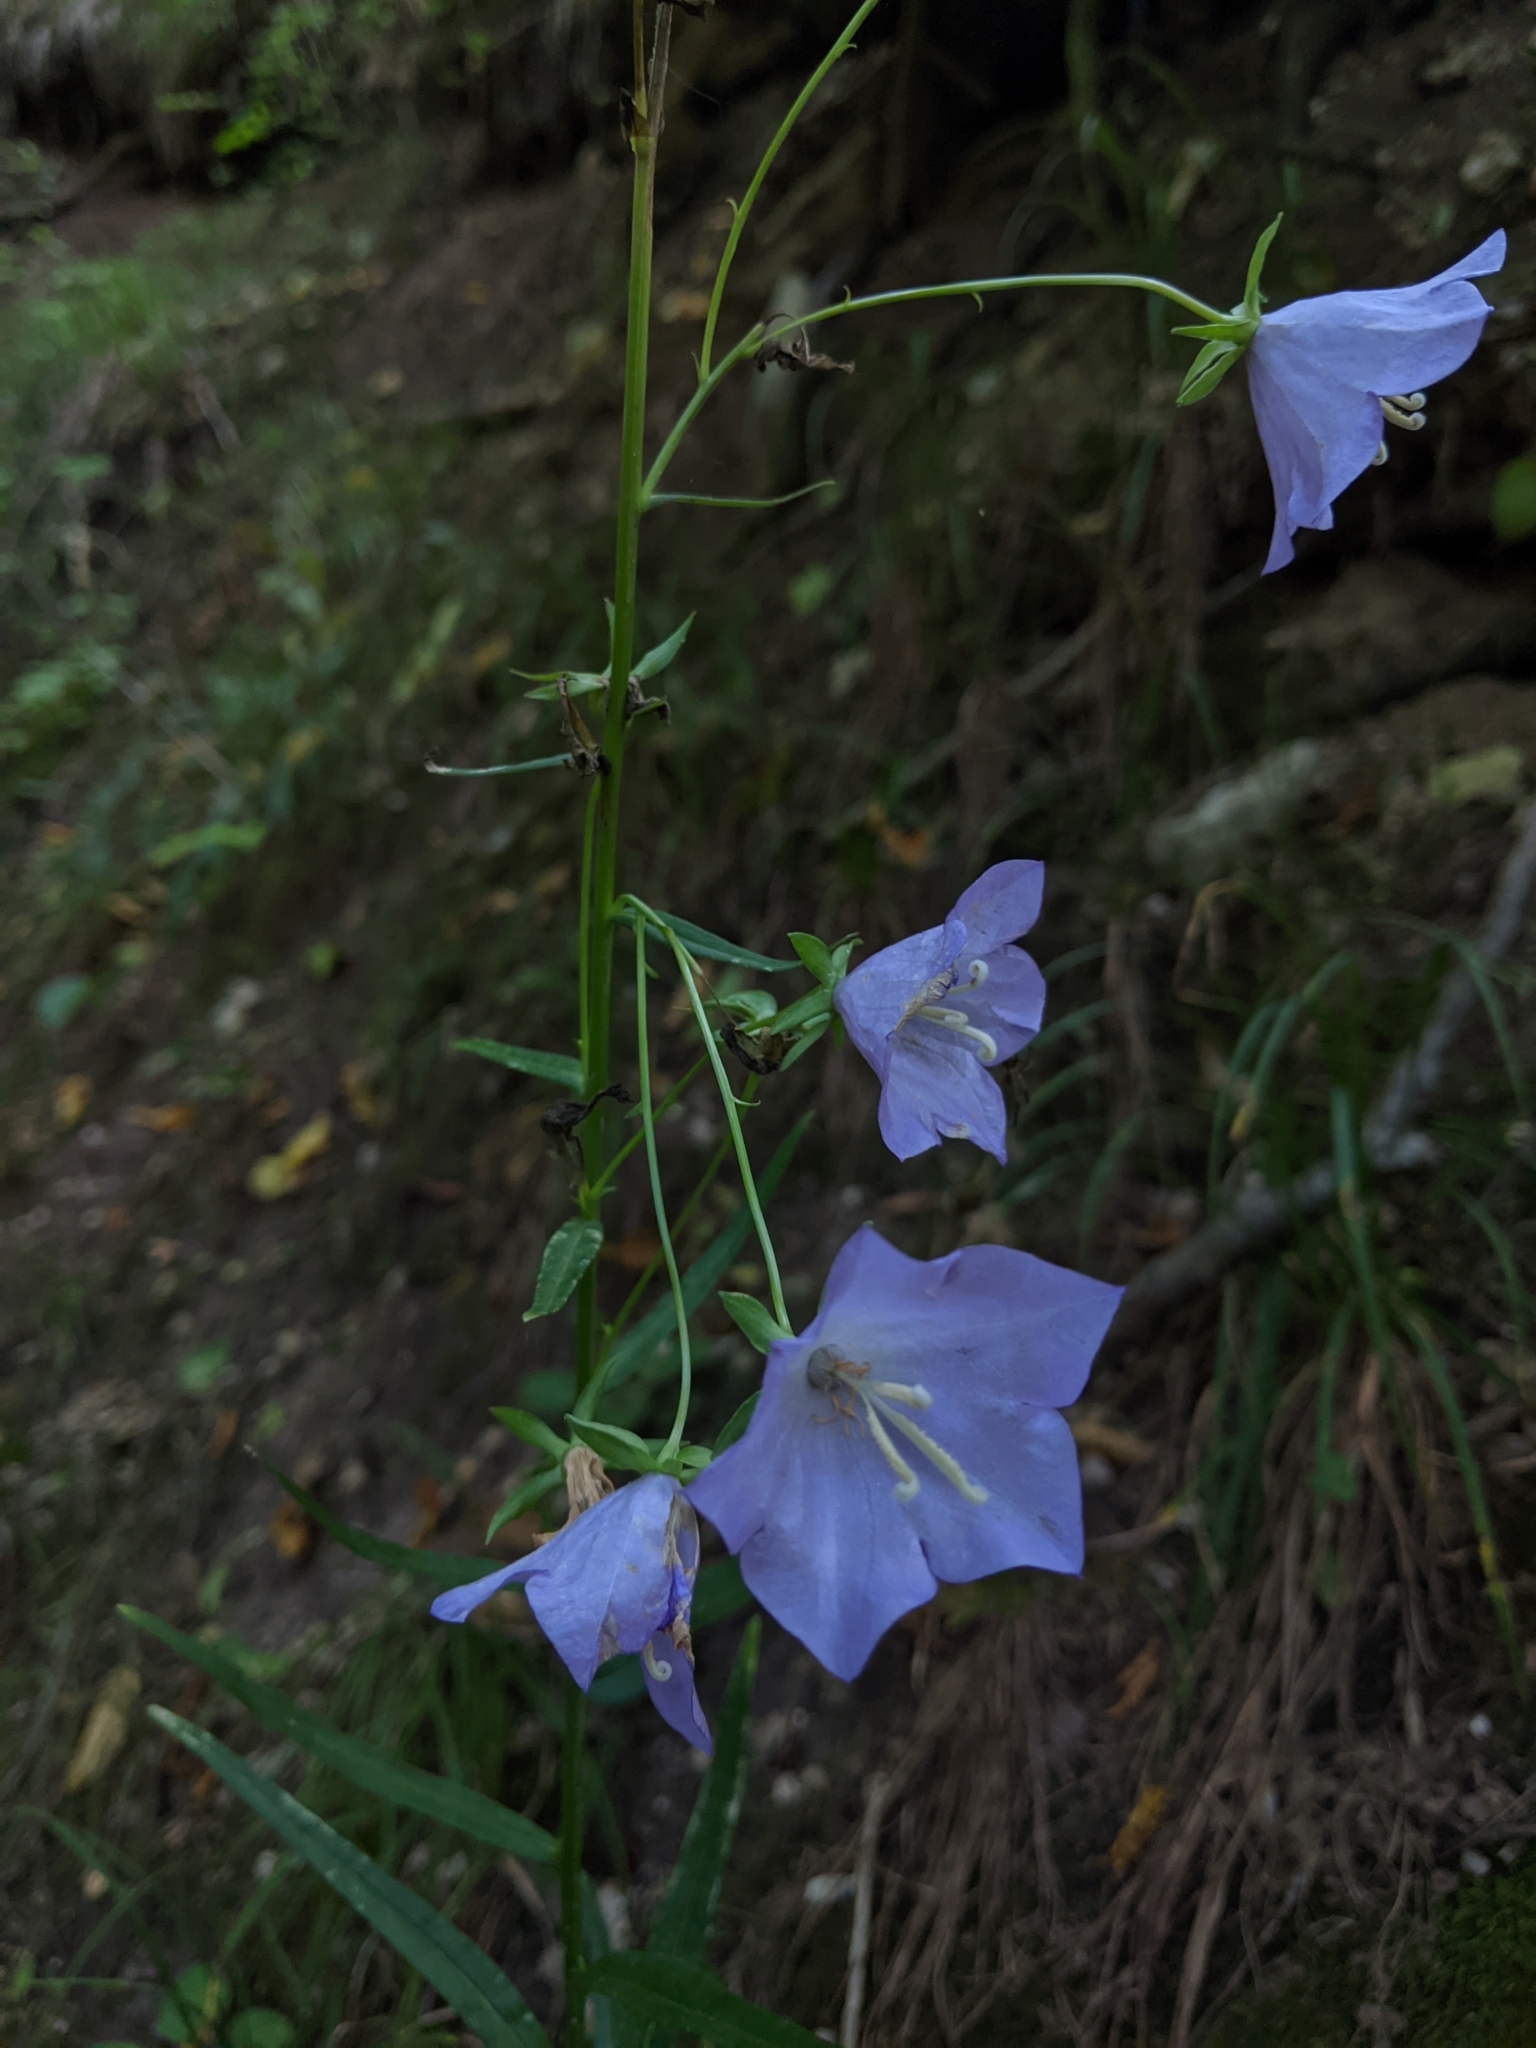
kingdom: Plantae
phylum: Tracheophyta
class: Magnoliopsida
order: Asterales
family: Campanulaceae
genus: Campanula
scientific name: Campanula persicifolia
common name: Peach-leaved bellflower
